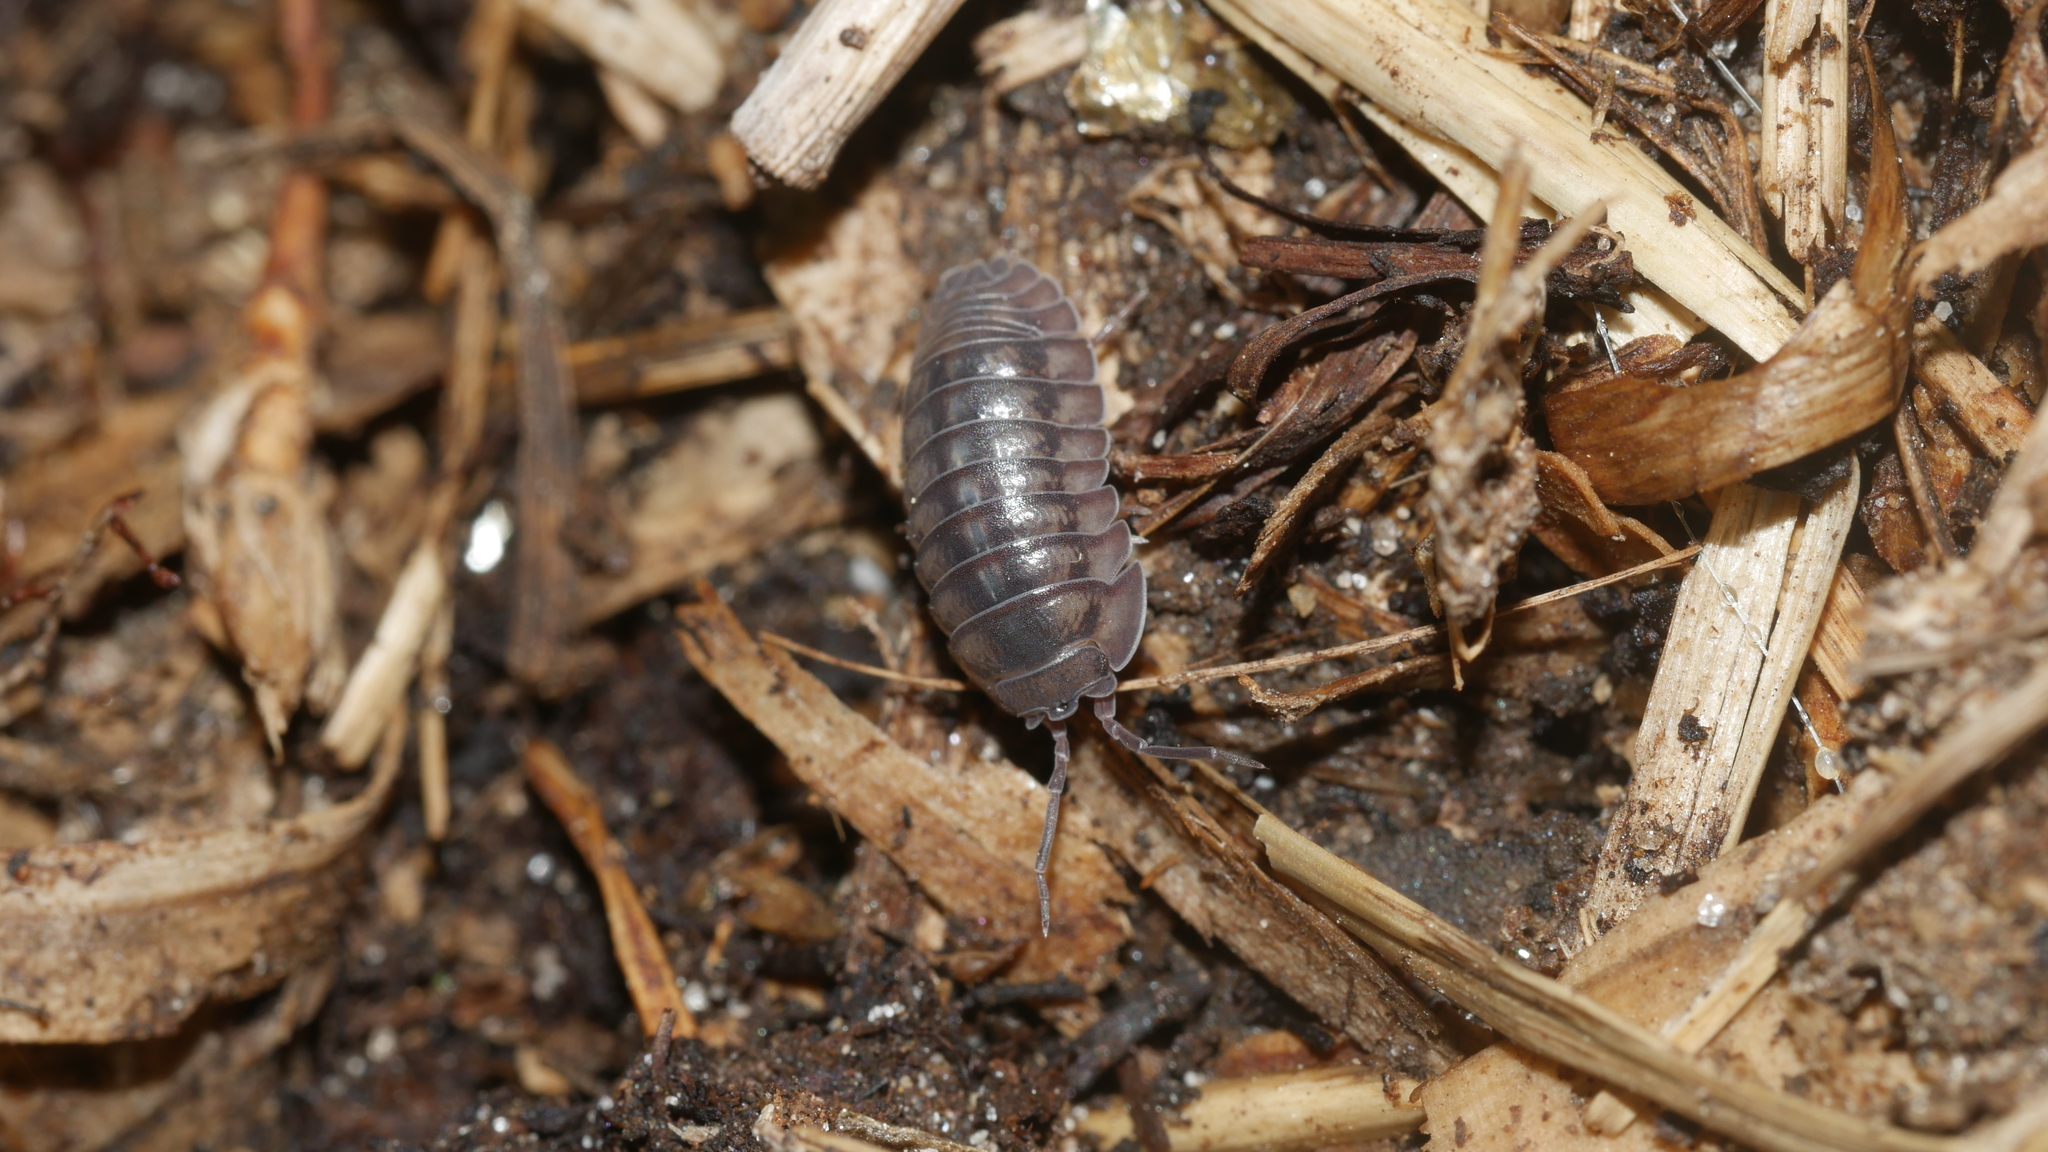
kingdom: Animalia
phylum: Arthropoda
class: Malacostraca
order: Isopoda
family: Armadillidiidae
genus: Armadillidium
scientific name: Armadillidium nasatum
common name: Isopod
